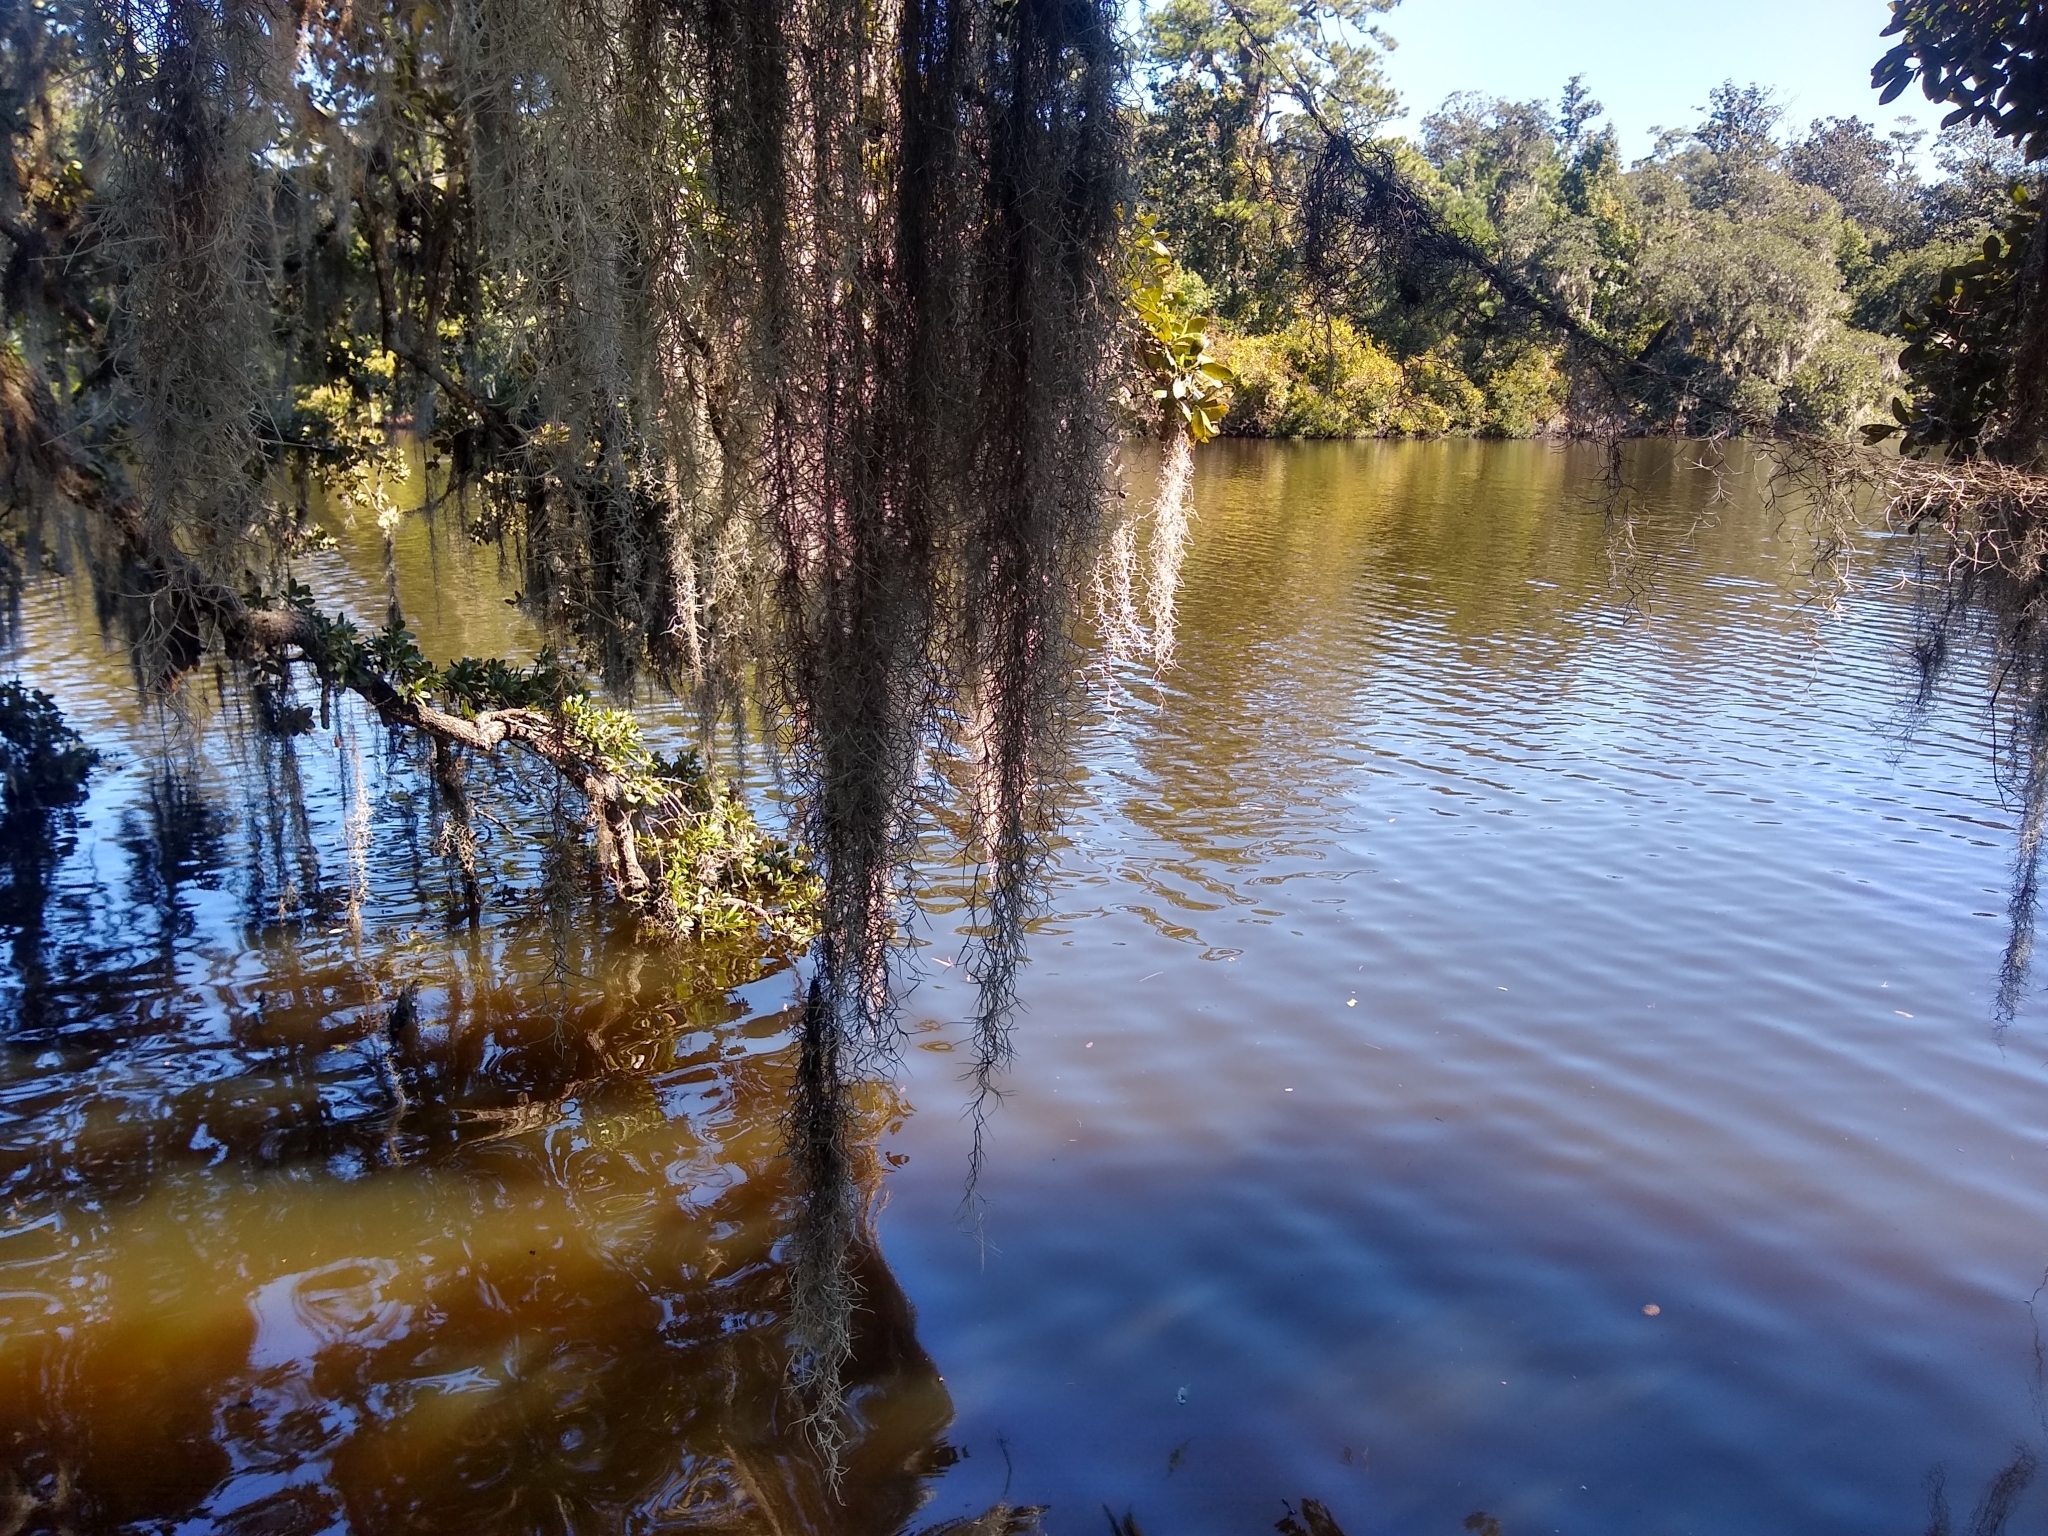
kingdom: Plantae
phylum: Tracheophyta
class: Liliopsida
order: Poales
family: Bromeliaceae
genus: Tillandsia
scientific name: Tillandsia usneoides
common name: Spanish moss
